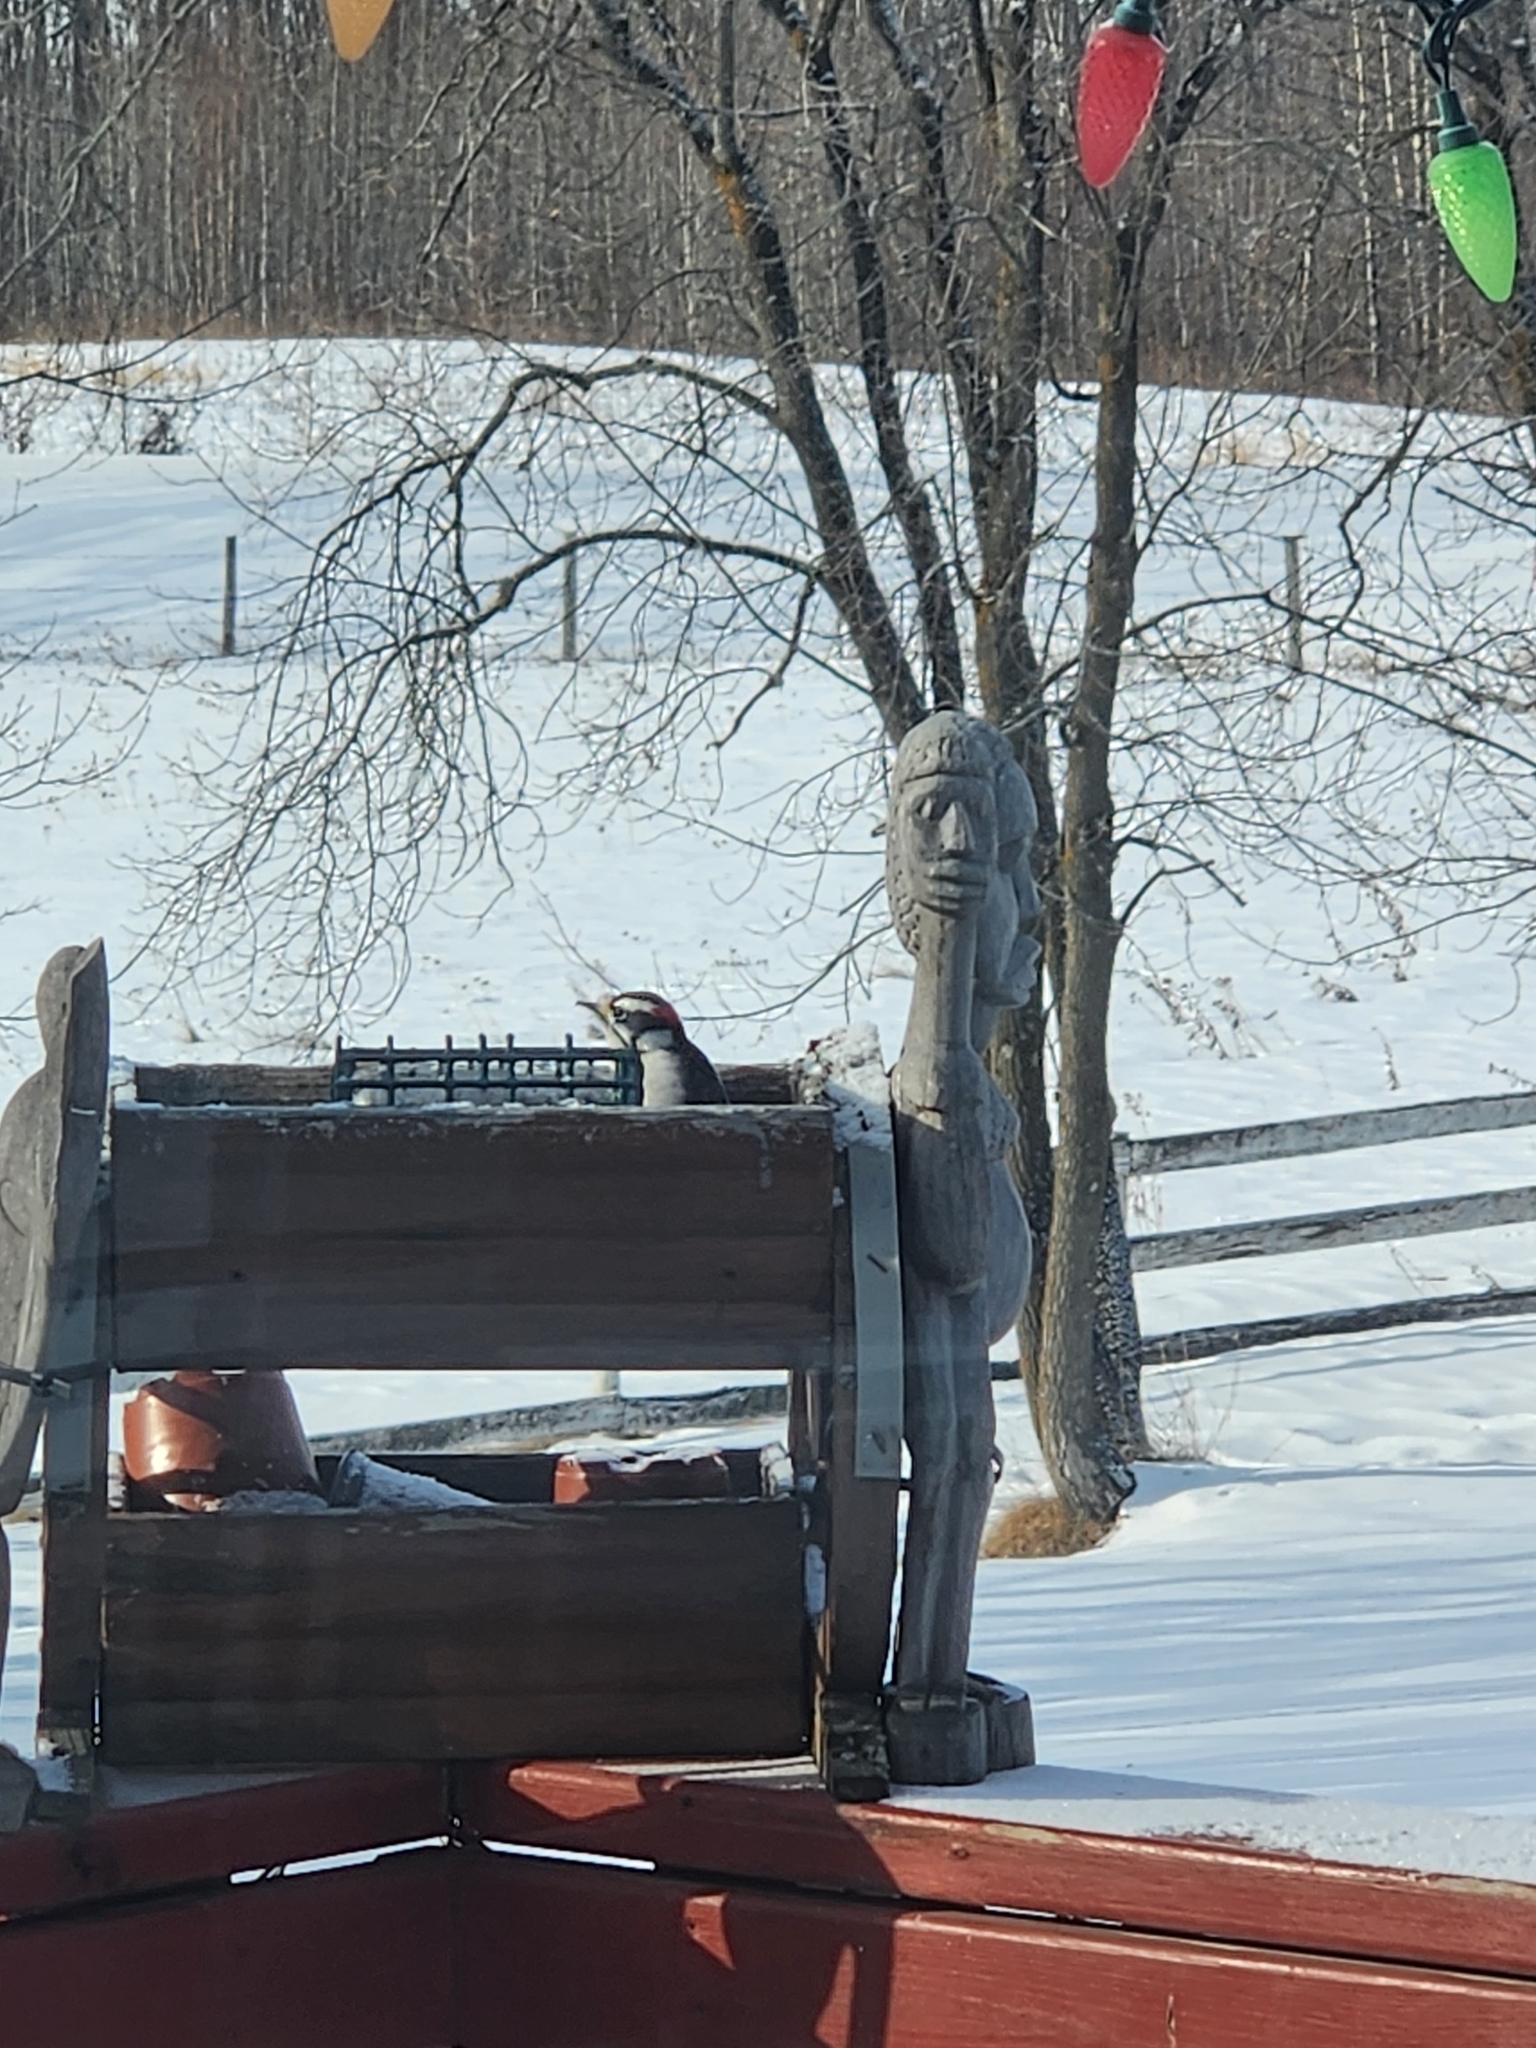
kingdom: Animalia
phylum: Chordata
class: Aves
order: Piciformes
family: Picidae
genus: Dryobates
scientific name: Dryobates pubescens
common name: Downy woodpecker
